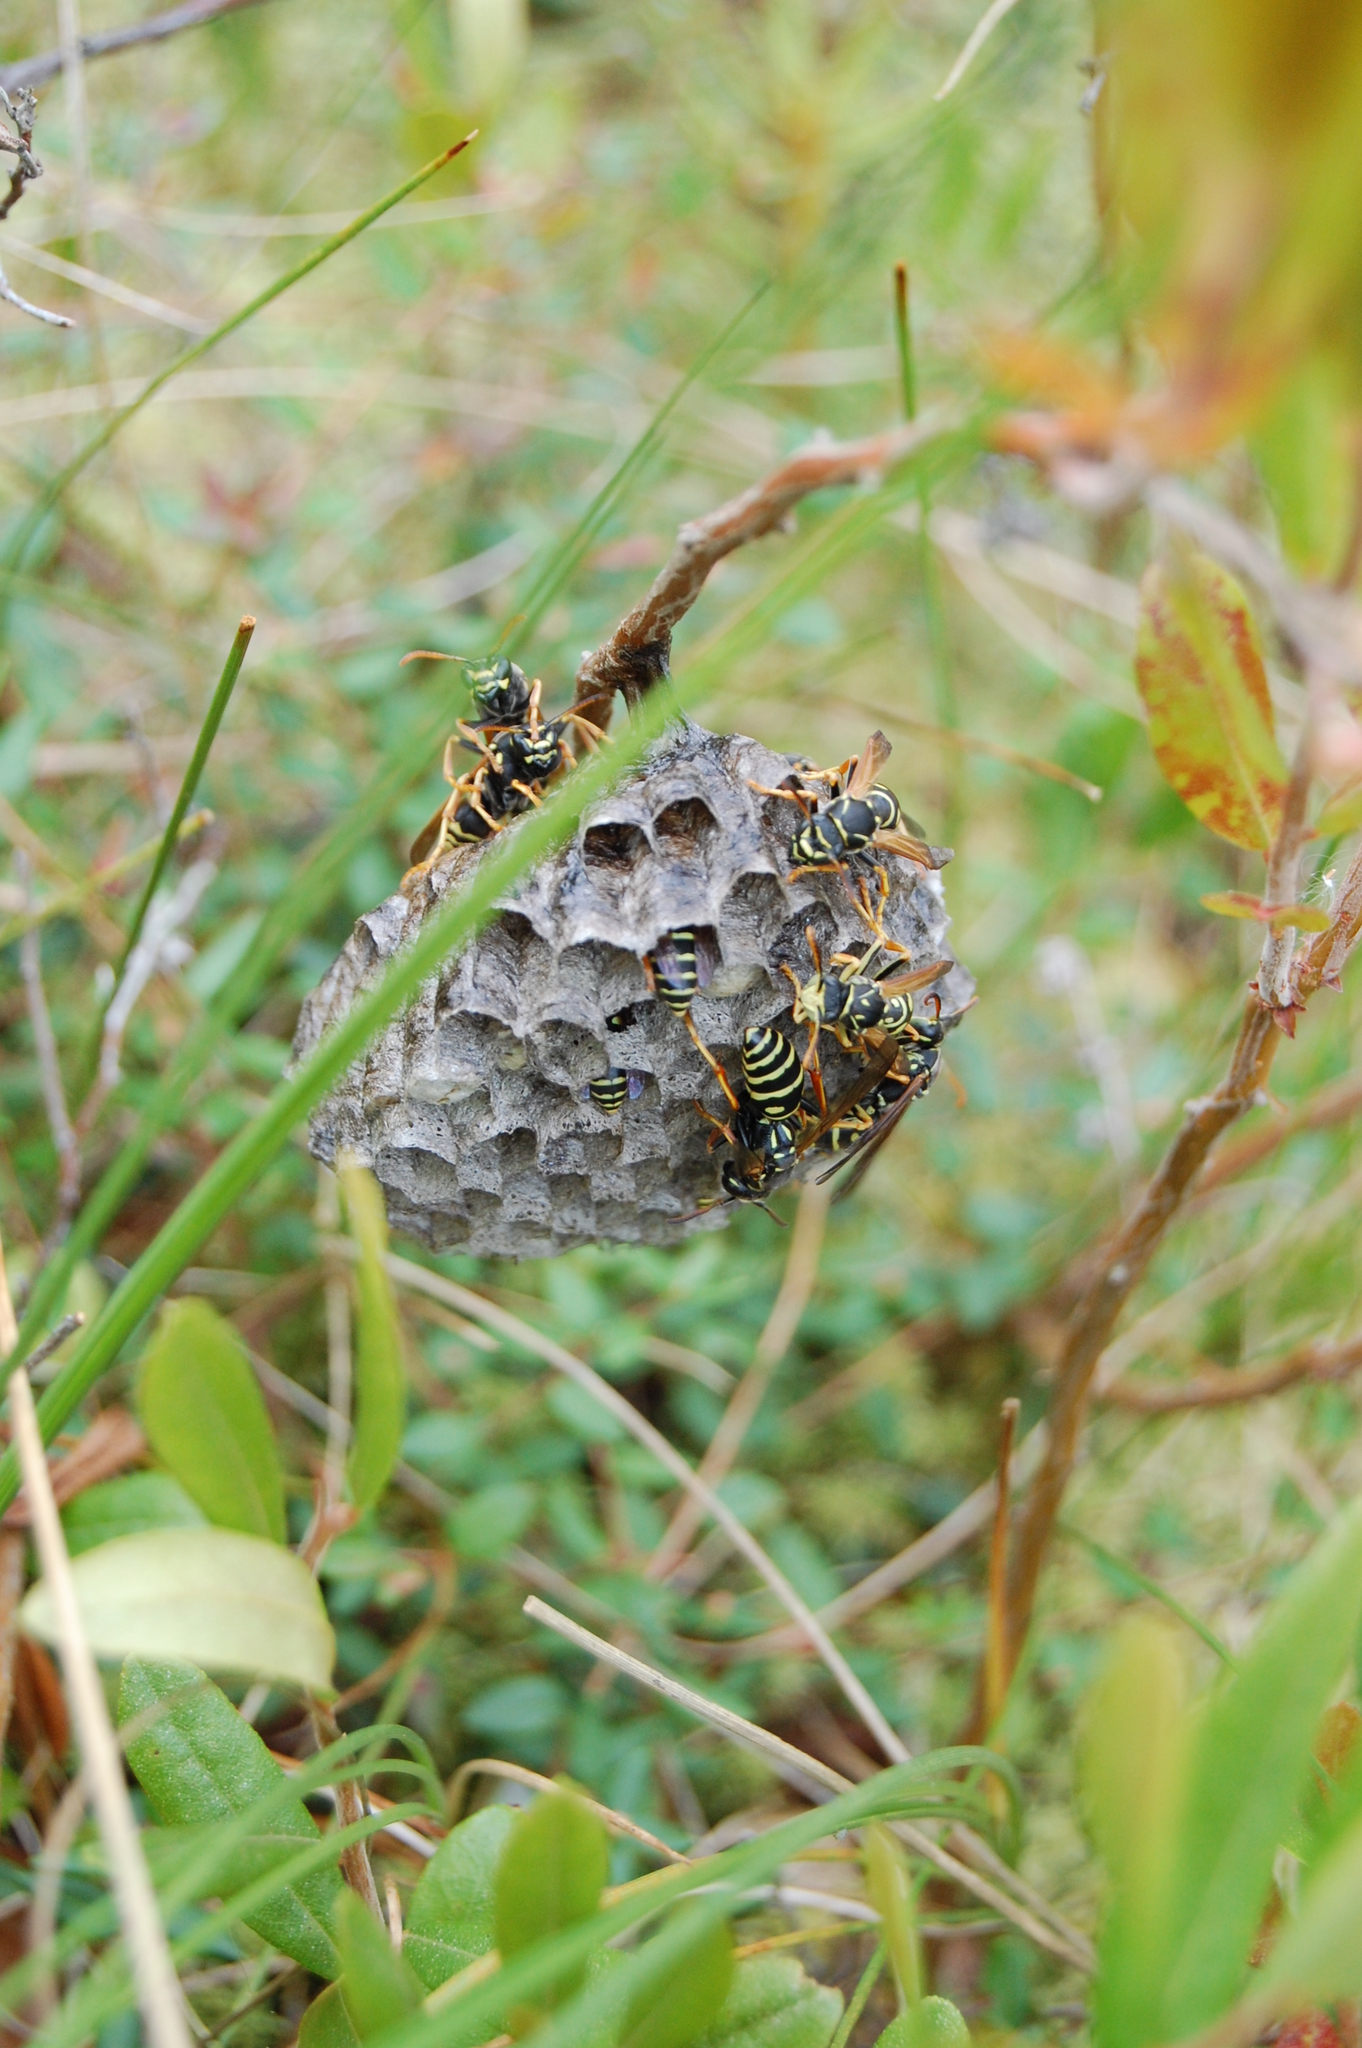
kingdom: Animalia
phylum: Arthropoda
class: Insecta
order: Hymenoptera
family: Eumenidae
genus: Polistes
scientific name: Polistes nimpha
